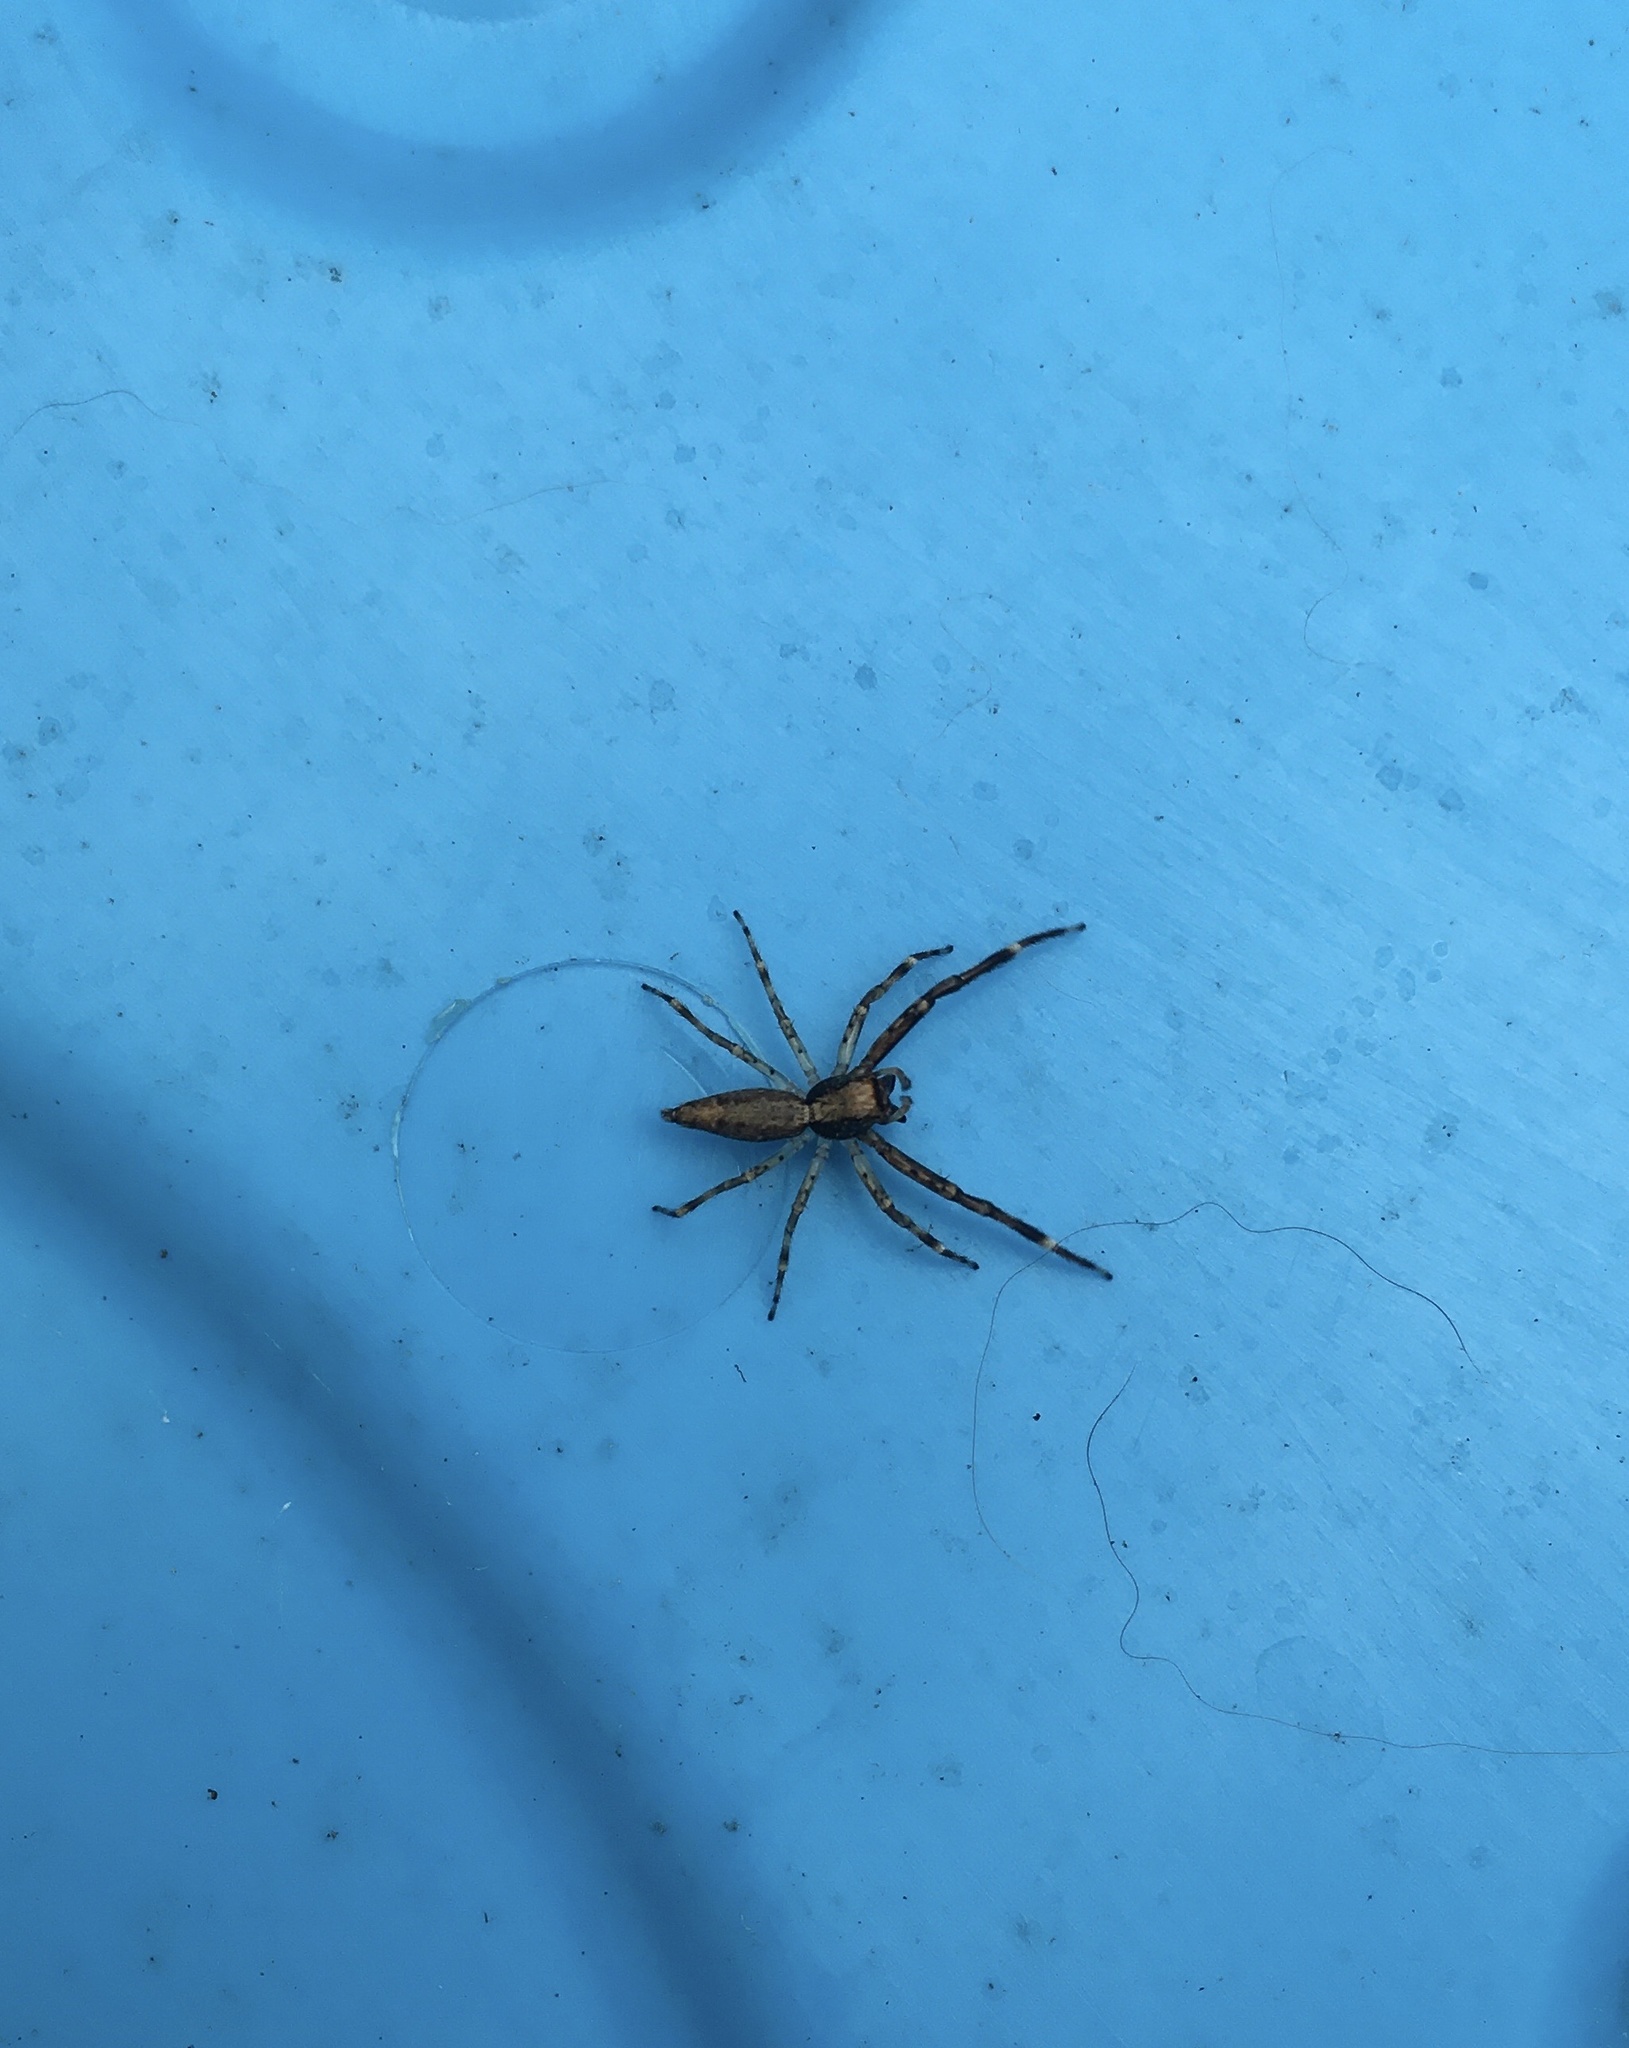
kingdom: Animalia
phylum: Arthropoda
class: Arachnida
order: Araneae
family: Salticidae
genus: Helpis
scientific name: Helpis minitabunda
